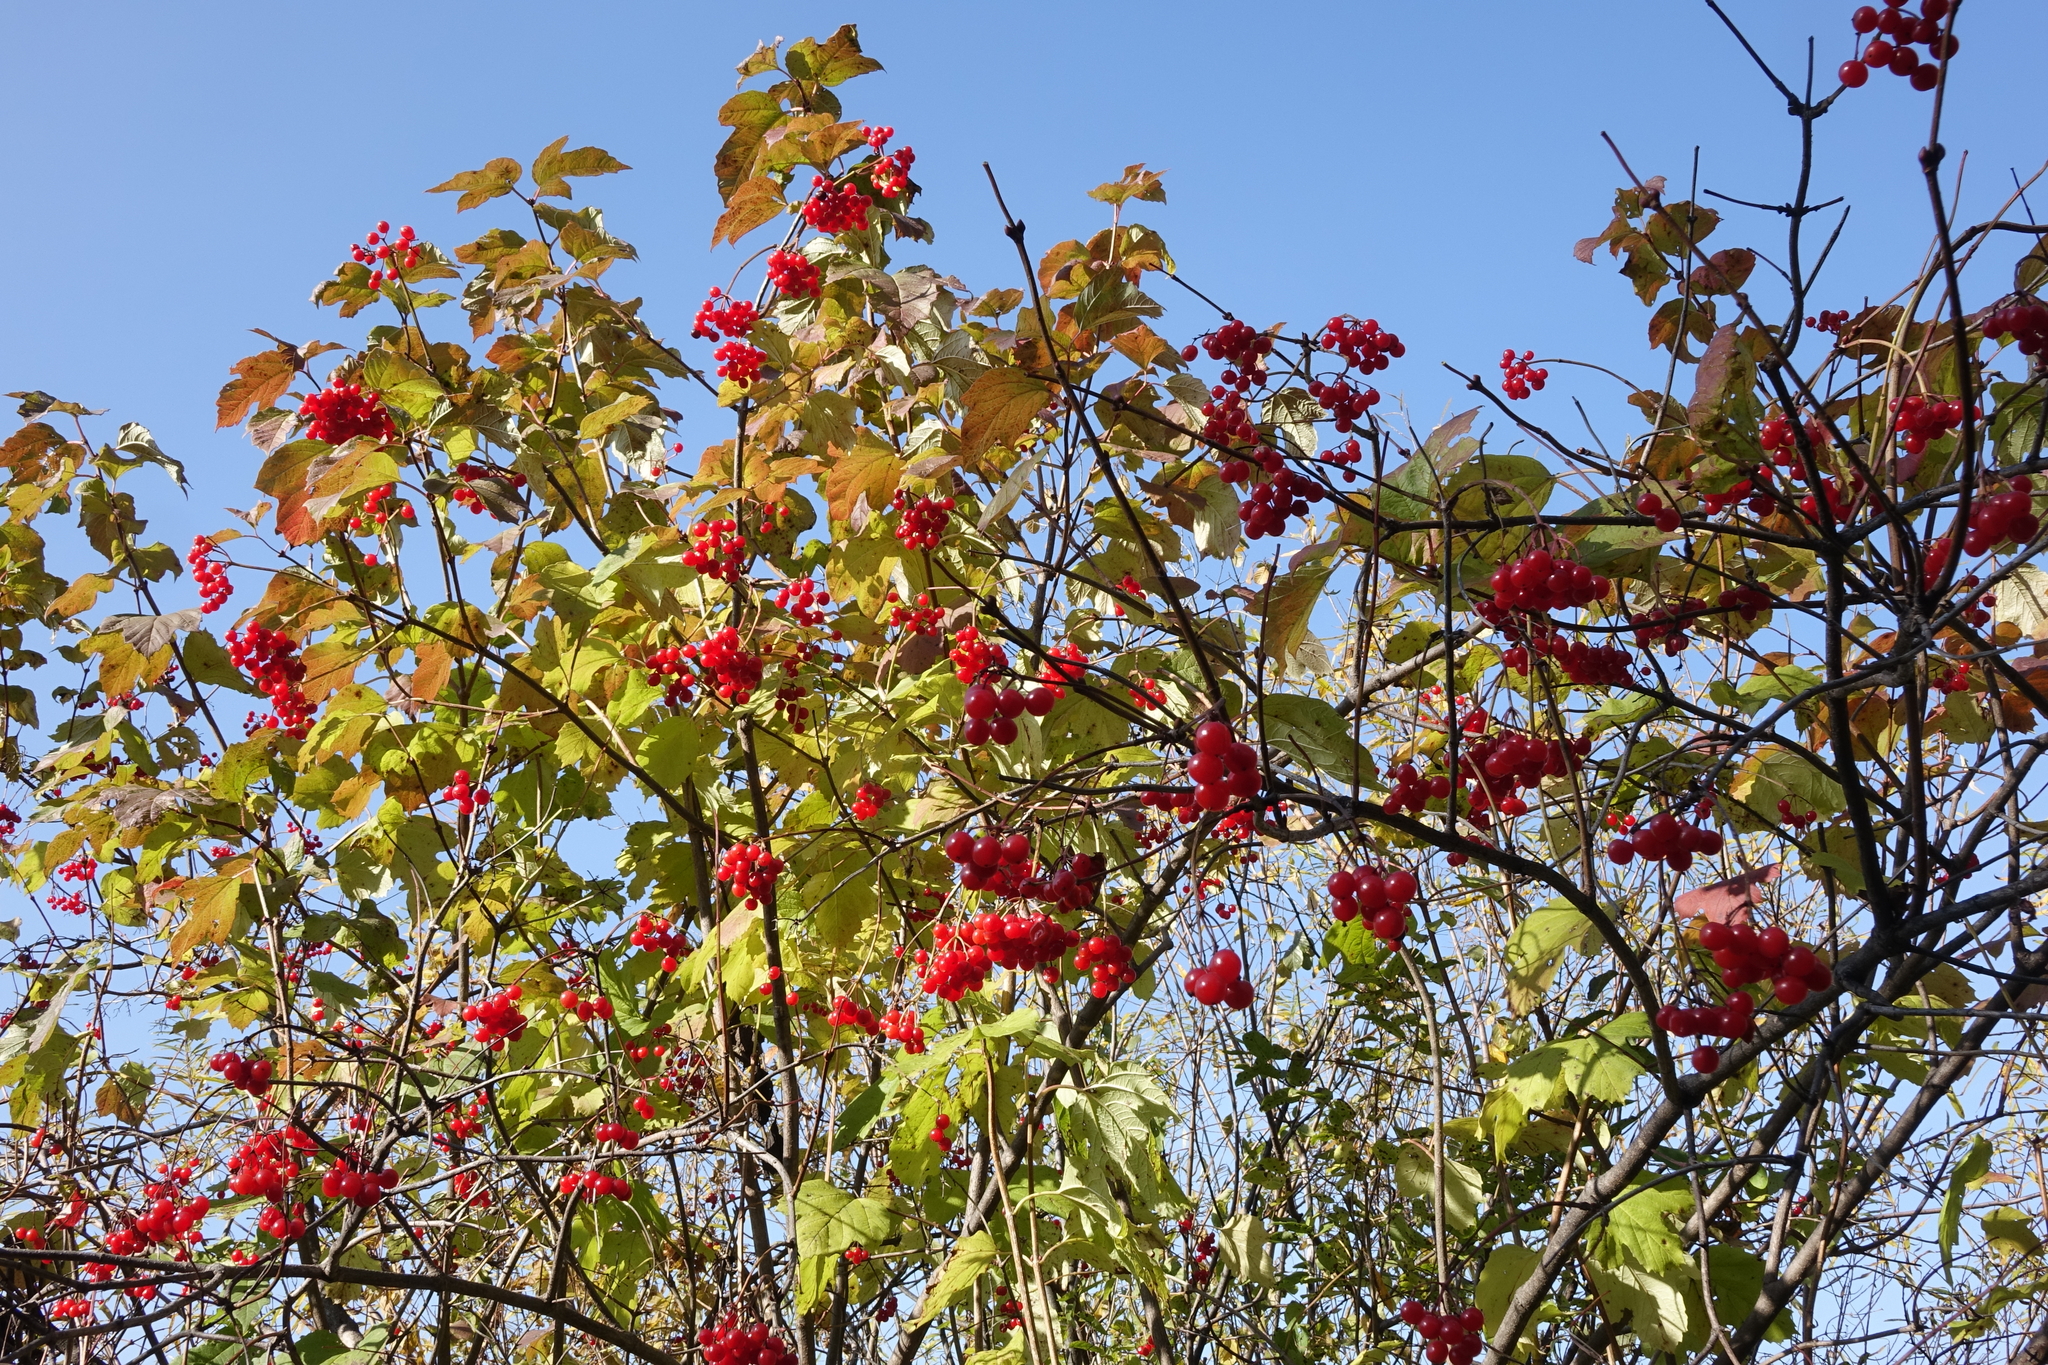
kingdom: Plantae
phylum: Tracheophyta
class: Magnoliopsida
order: Dipsacales
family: Viburnaceae
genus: Viburnum
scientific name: Viburnum opulus
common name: Guelder-rose
